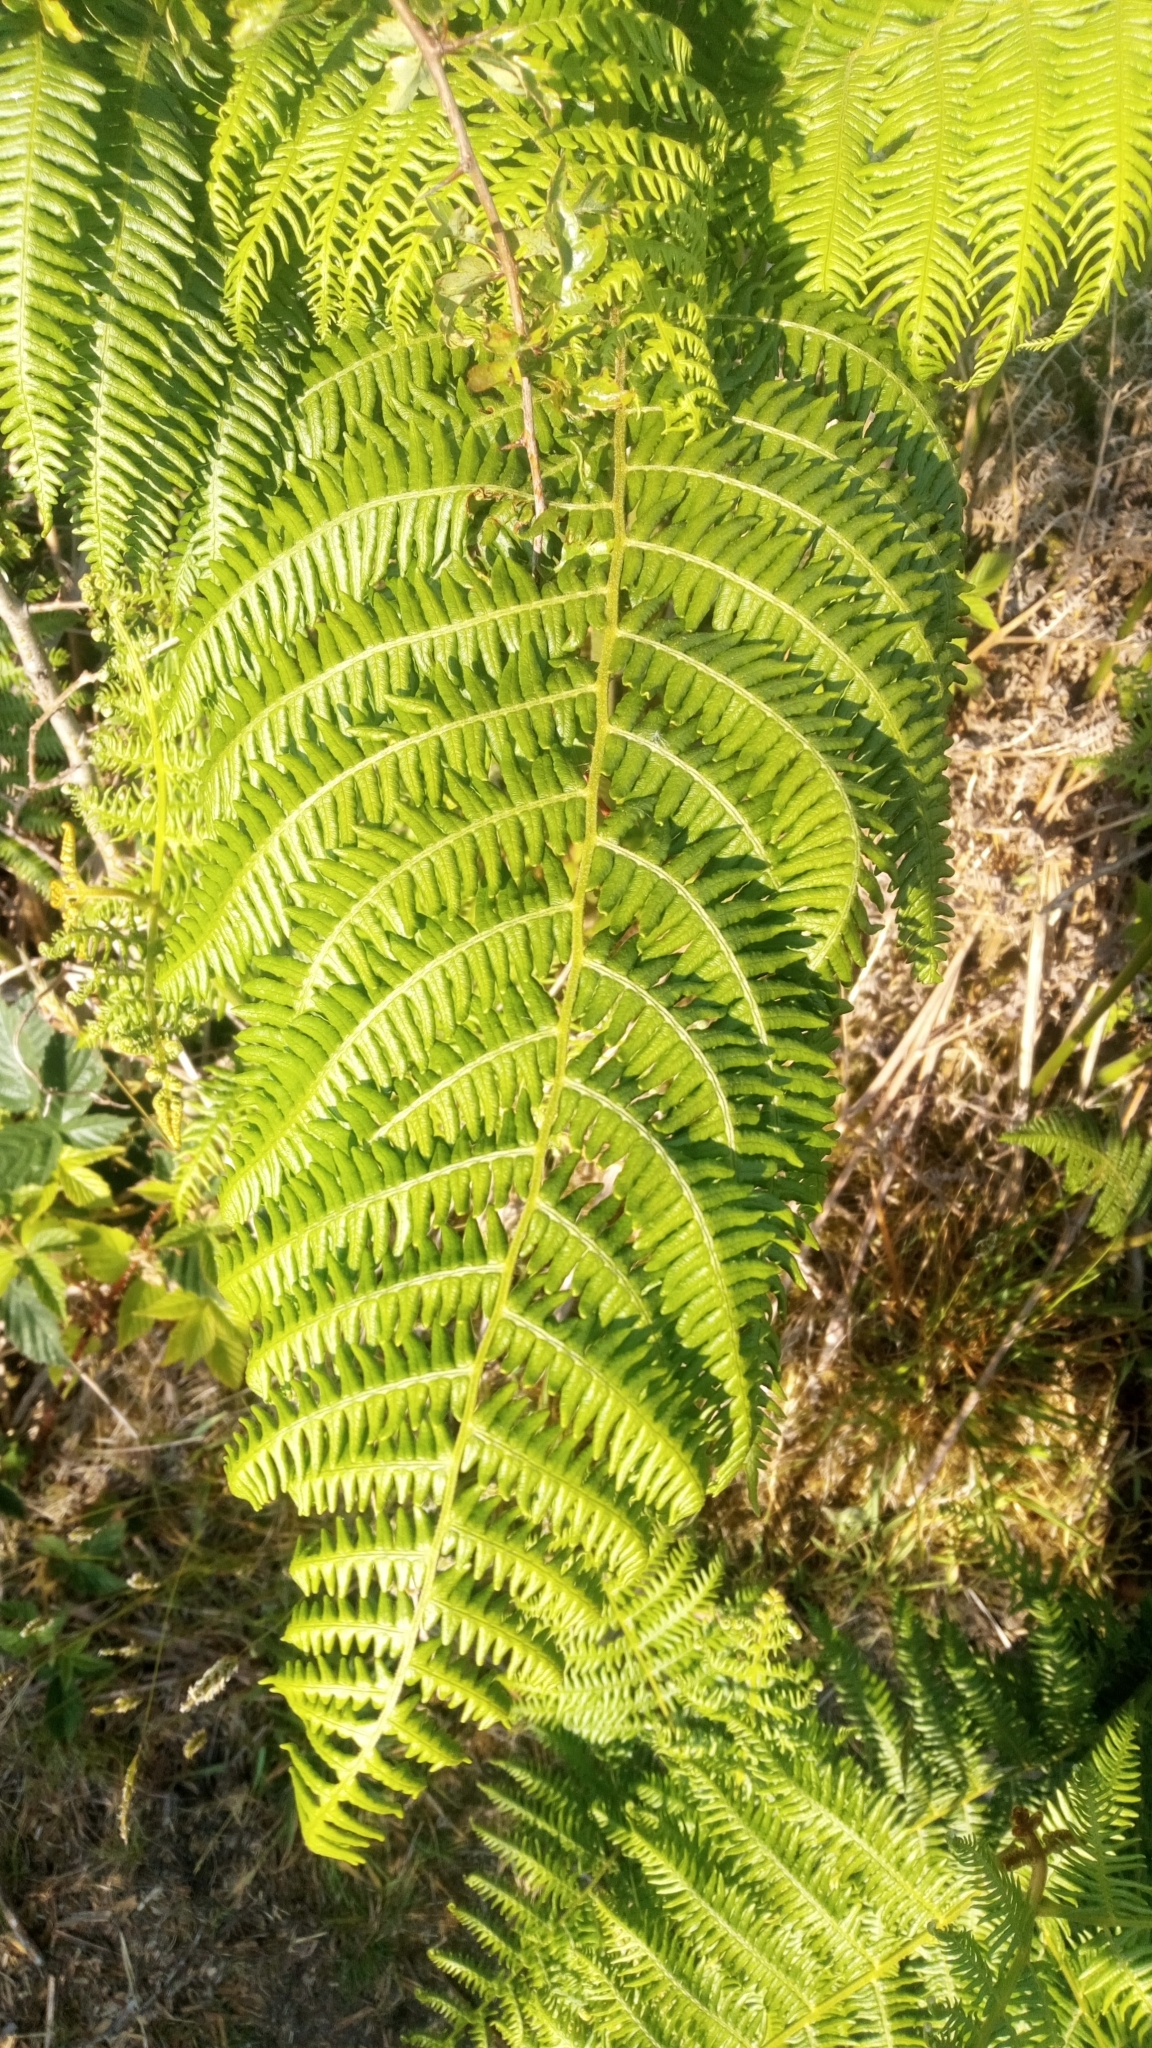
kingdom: Plantae
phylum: Tracheophyta
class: Polypodiopsida
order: Polypodiales
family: Dennstaedtiaceae
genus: Pteridium
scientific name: Pteridium aquilinum
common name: Bracken
